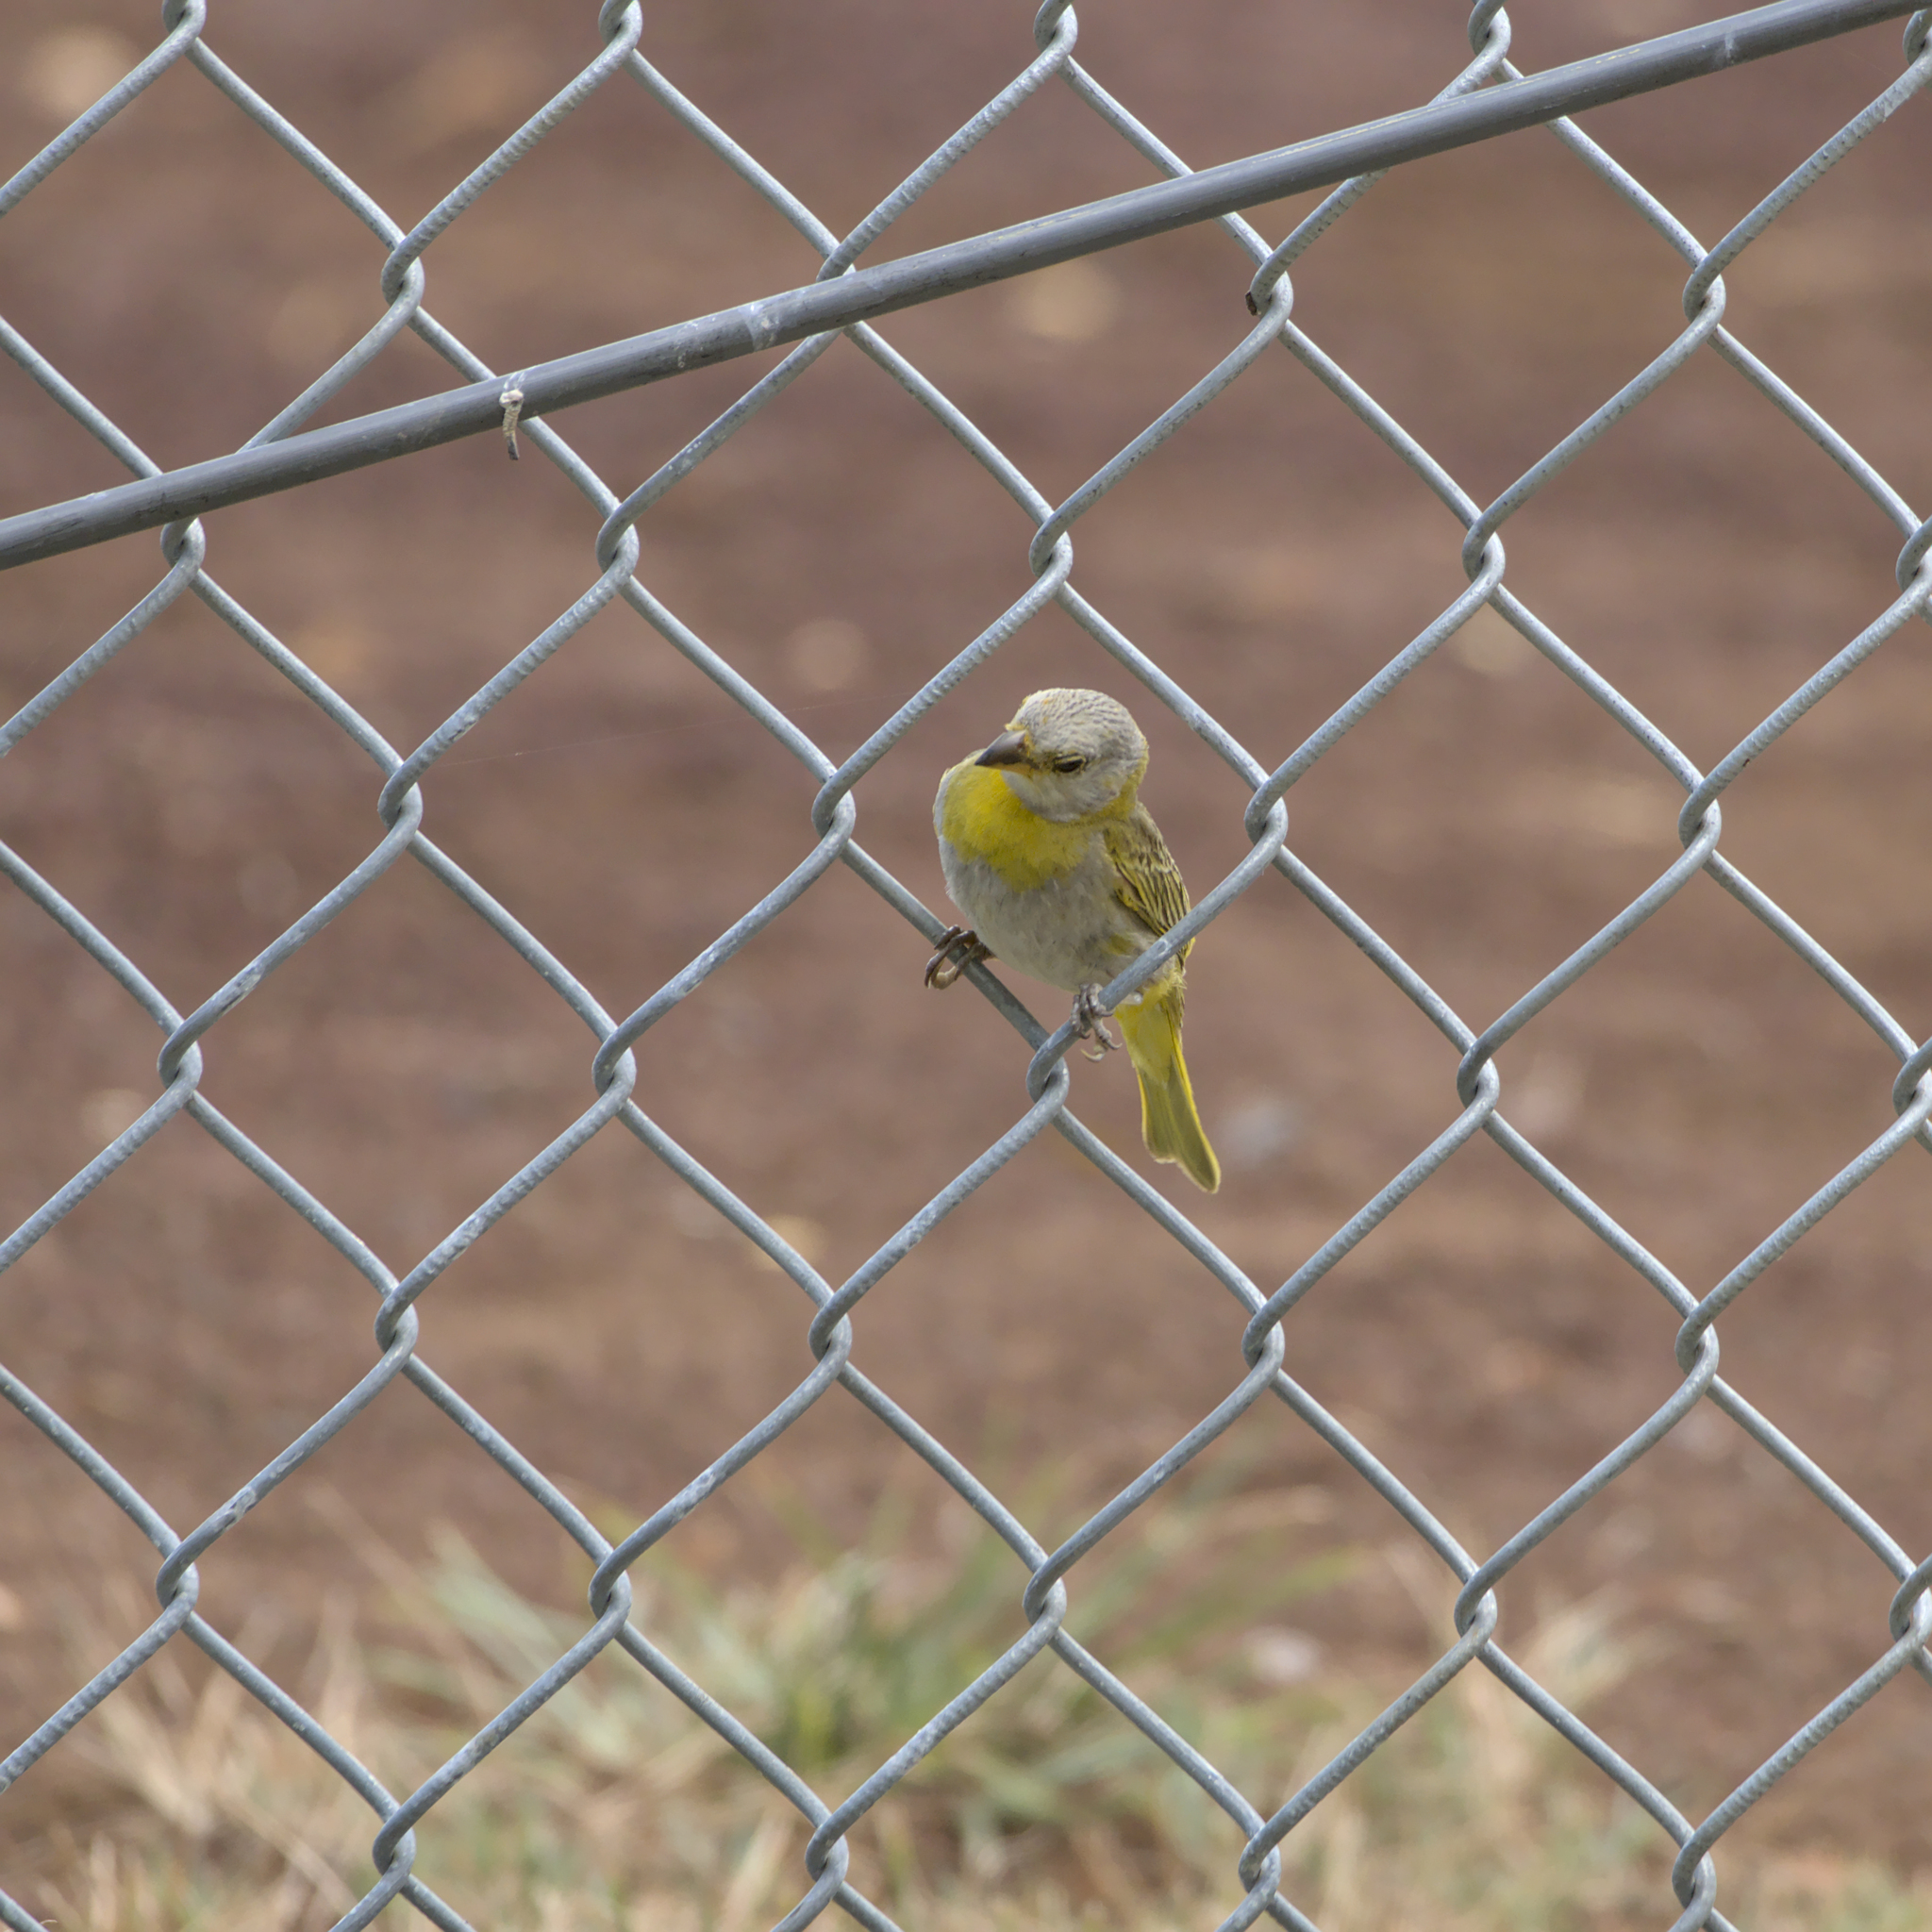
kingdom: Animalia
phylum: Chordata
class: Aves
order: Passeriformes
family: Thraupidae
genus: Sicalis
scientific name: Sicalis flaveola
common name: Saffron finch
